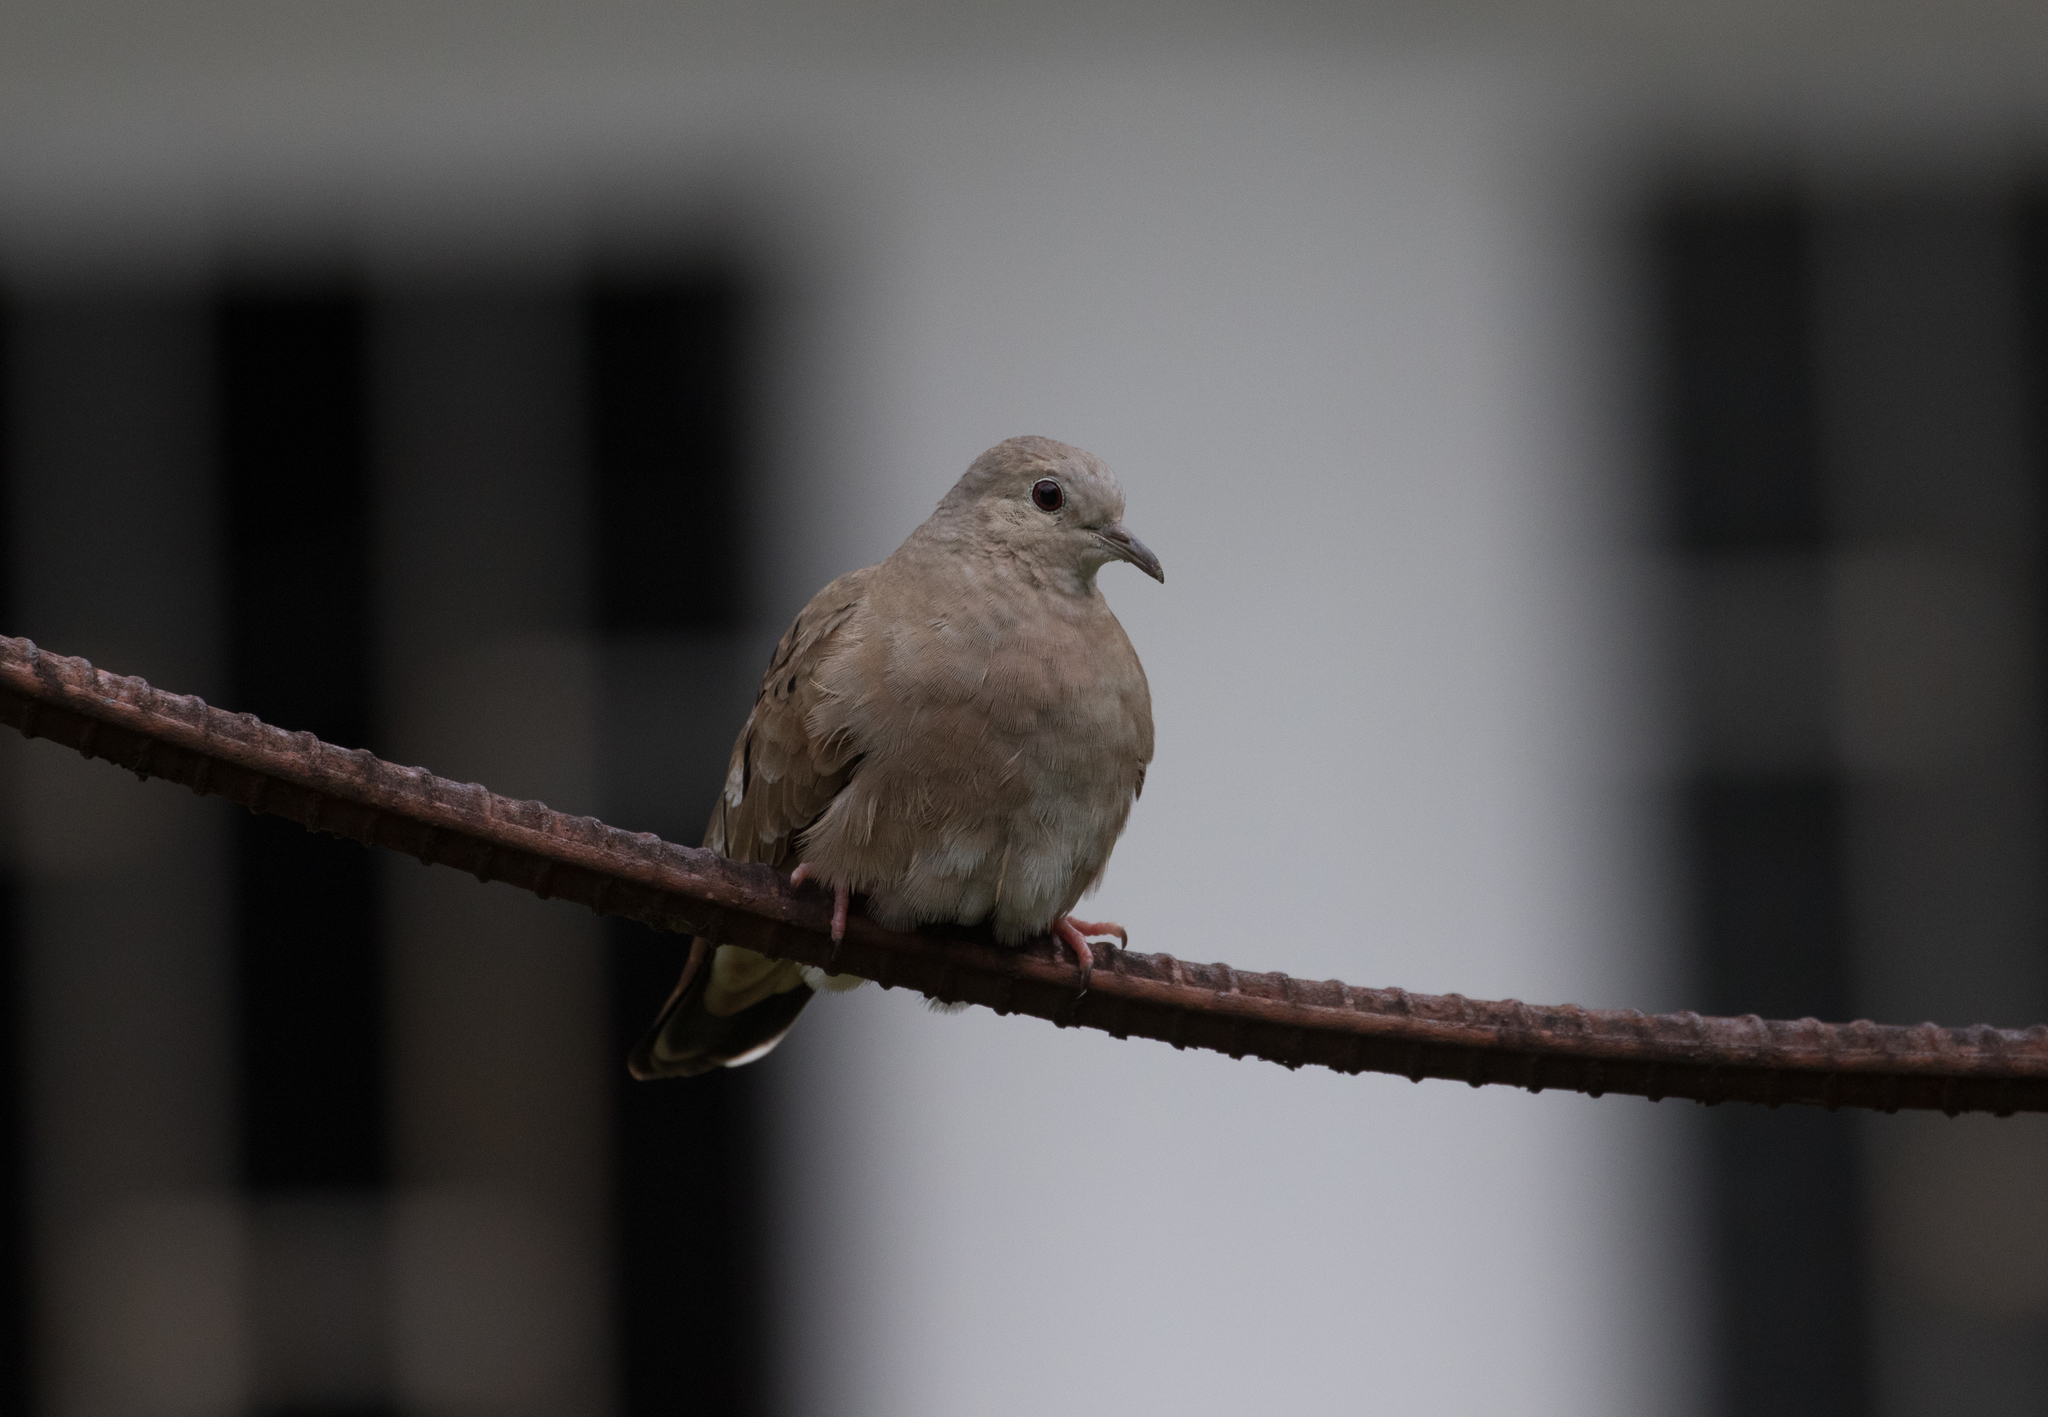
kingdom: Animalia
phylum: Chordata
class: Aves
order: Columbiformes
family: Columbidae
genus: Columbina
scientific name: Columbina talpacoti
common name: Ruddy ground dove
